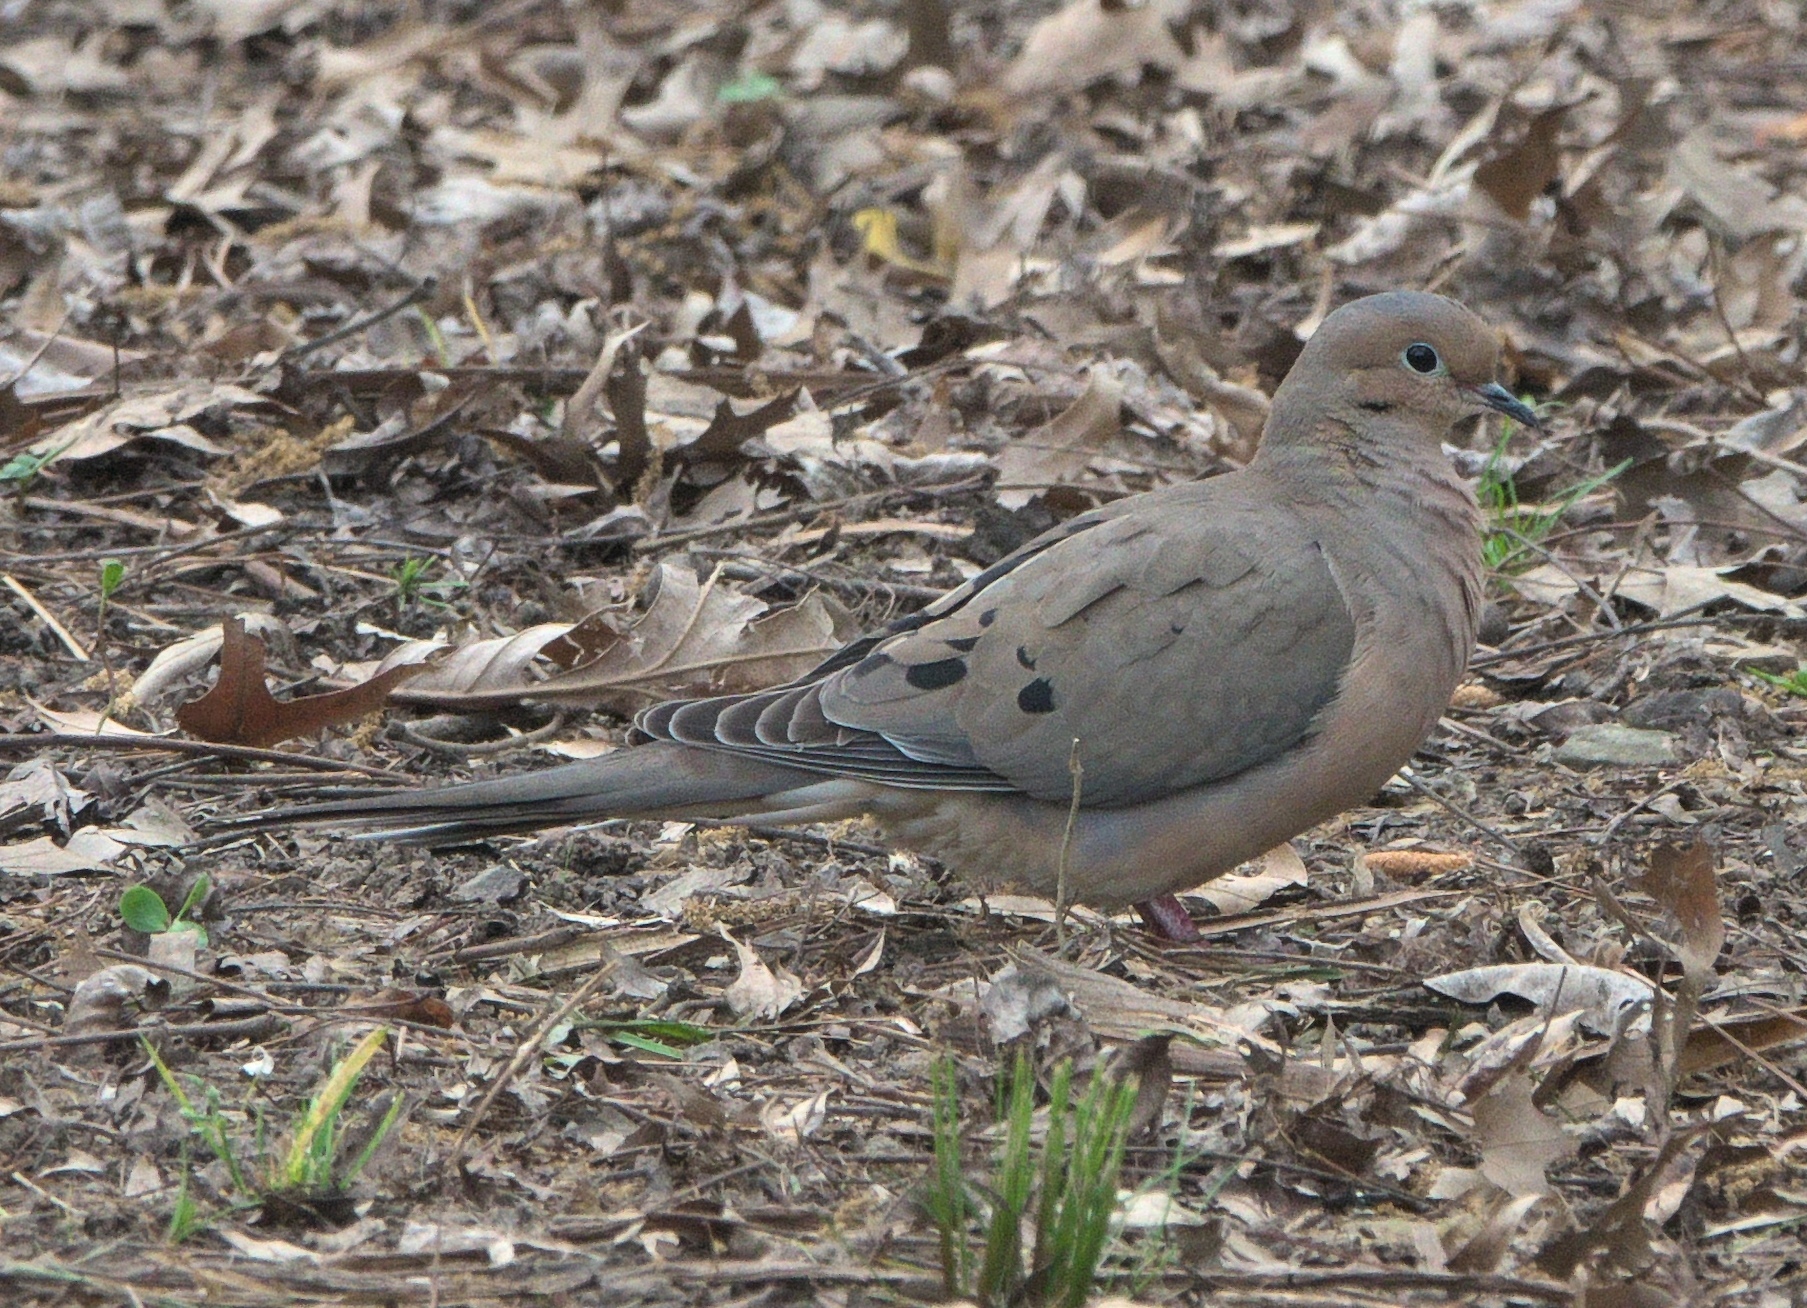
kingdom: Animalia
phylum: Chordata
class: Aves
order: Columbiformes
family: Columbidae
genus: Zenaida
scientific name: Zenaida macroura
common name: Mourning dove
